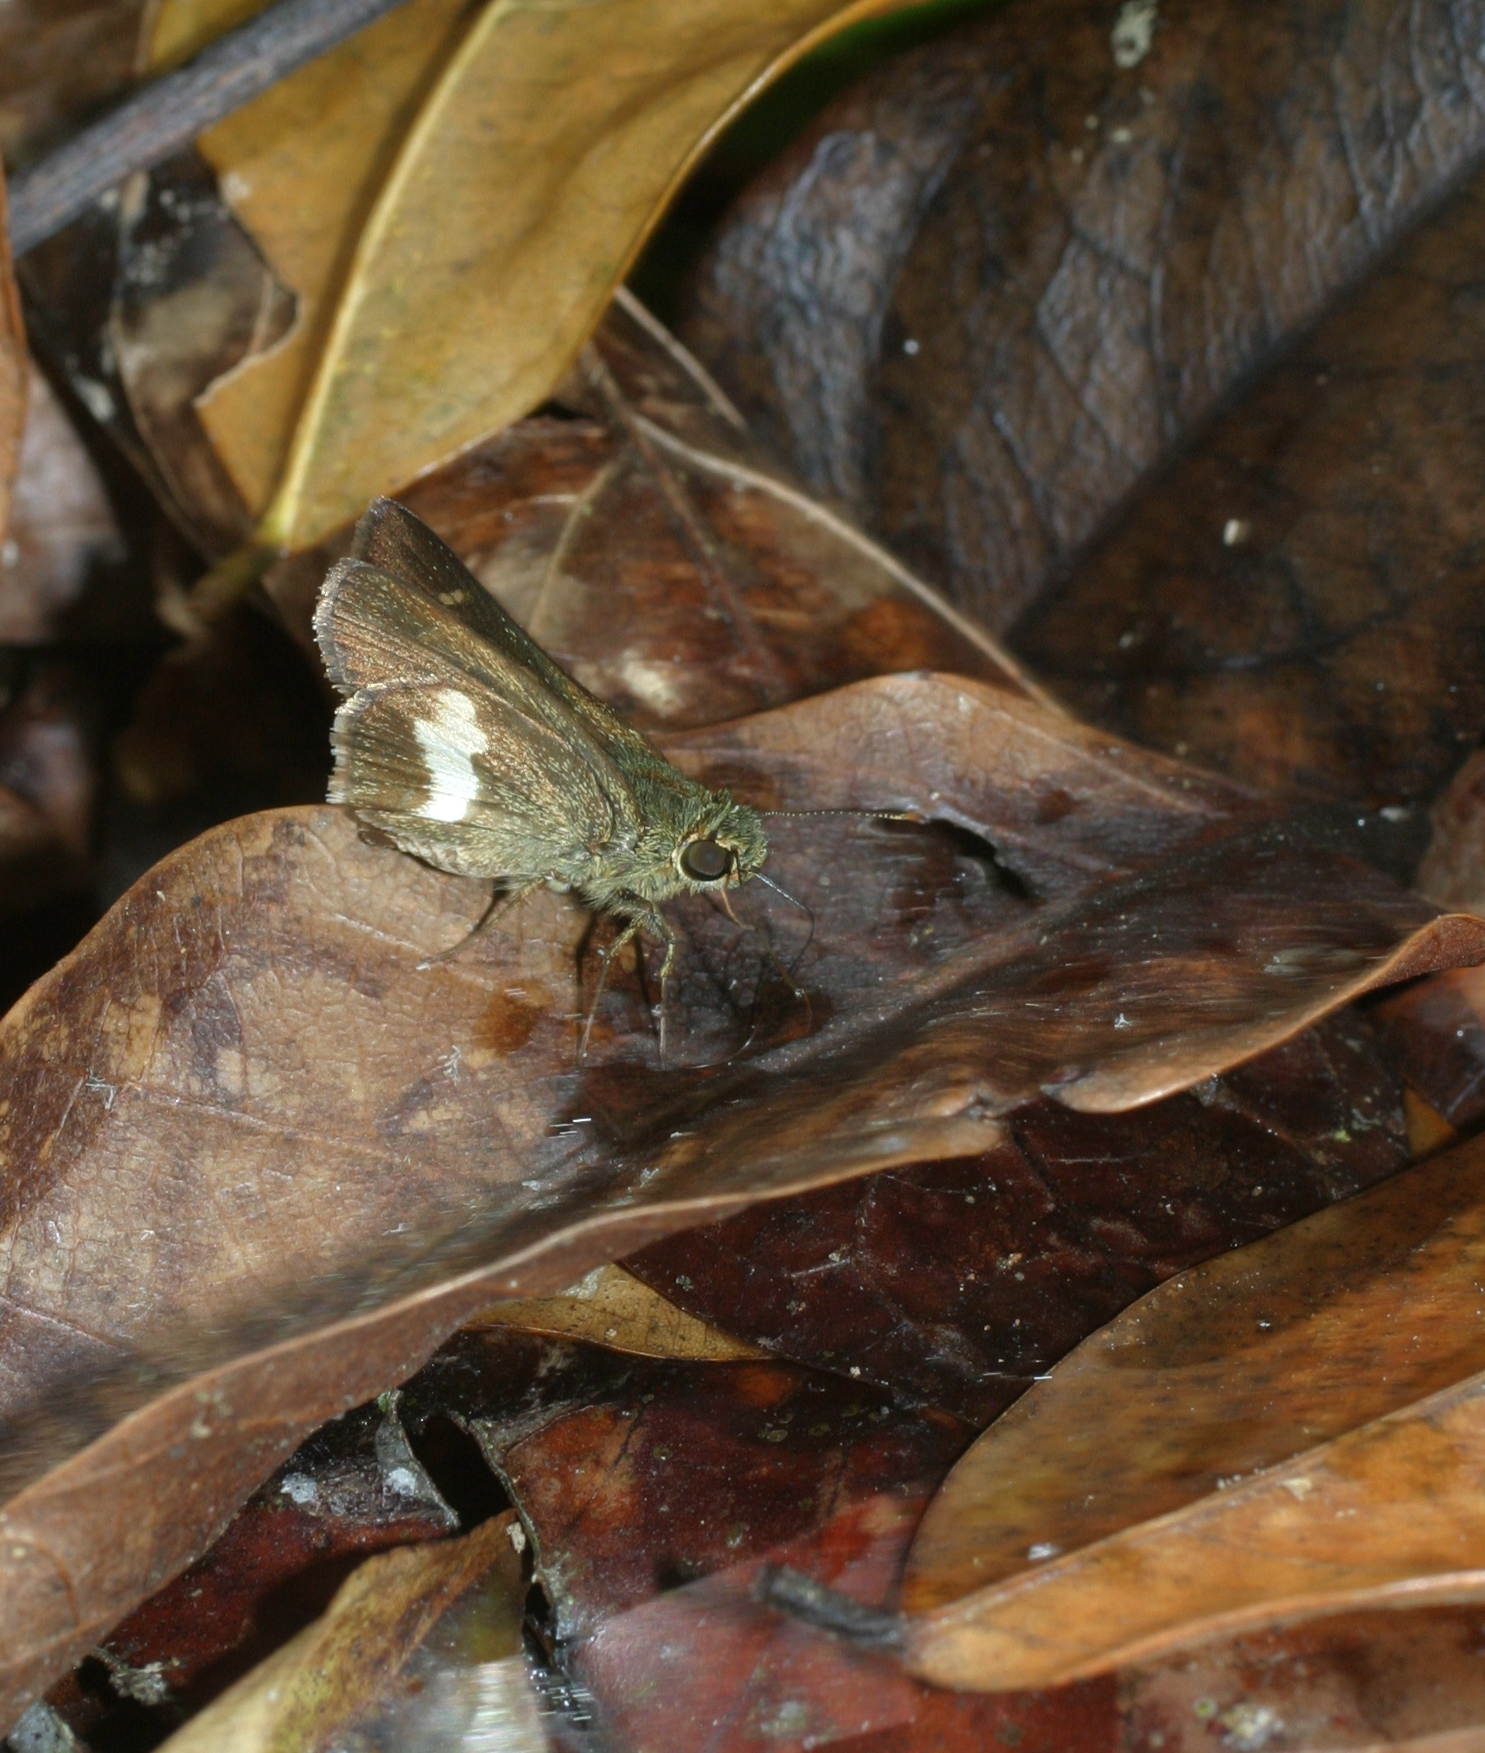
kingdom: Animalia
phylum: Arthropoda
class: Insecta
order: Lepidoptera
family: Hesperiidae
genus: Halpe
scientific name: Halpe zola
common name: Long-banded ace
